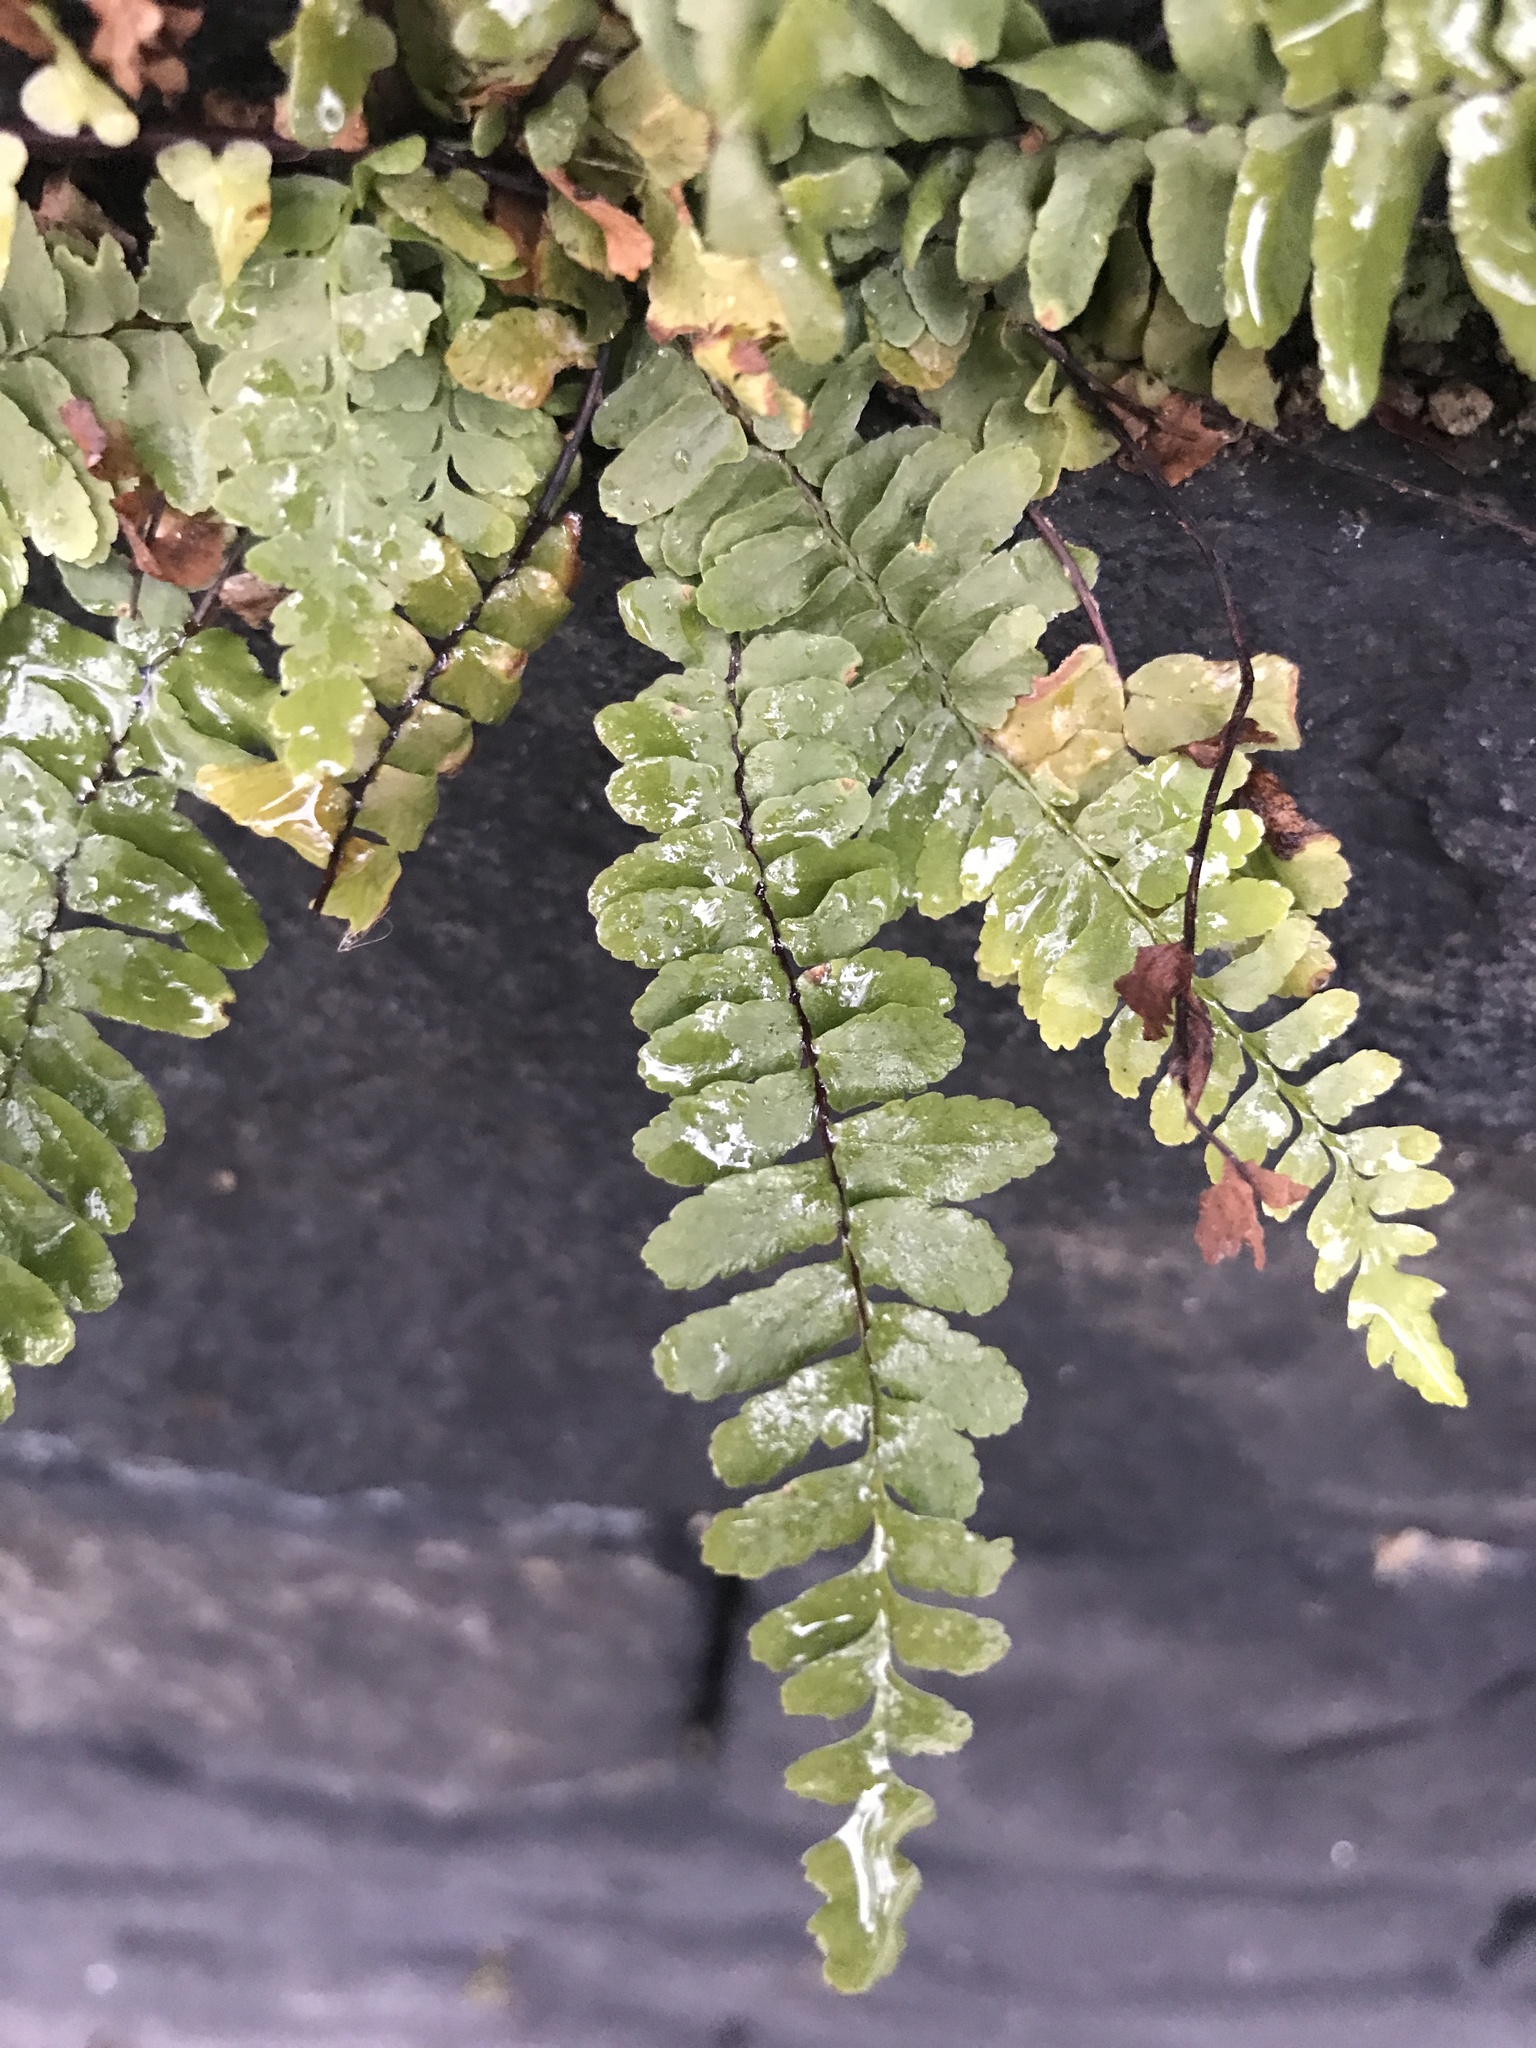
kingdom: Plantae
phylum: Tracheophyta
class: Polypodiopsida
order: Polypodiales
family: Aspleniaceae
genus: Asplenium
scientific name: Asplenium platyneuron
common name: Ebony spleenwort
